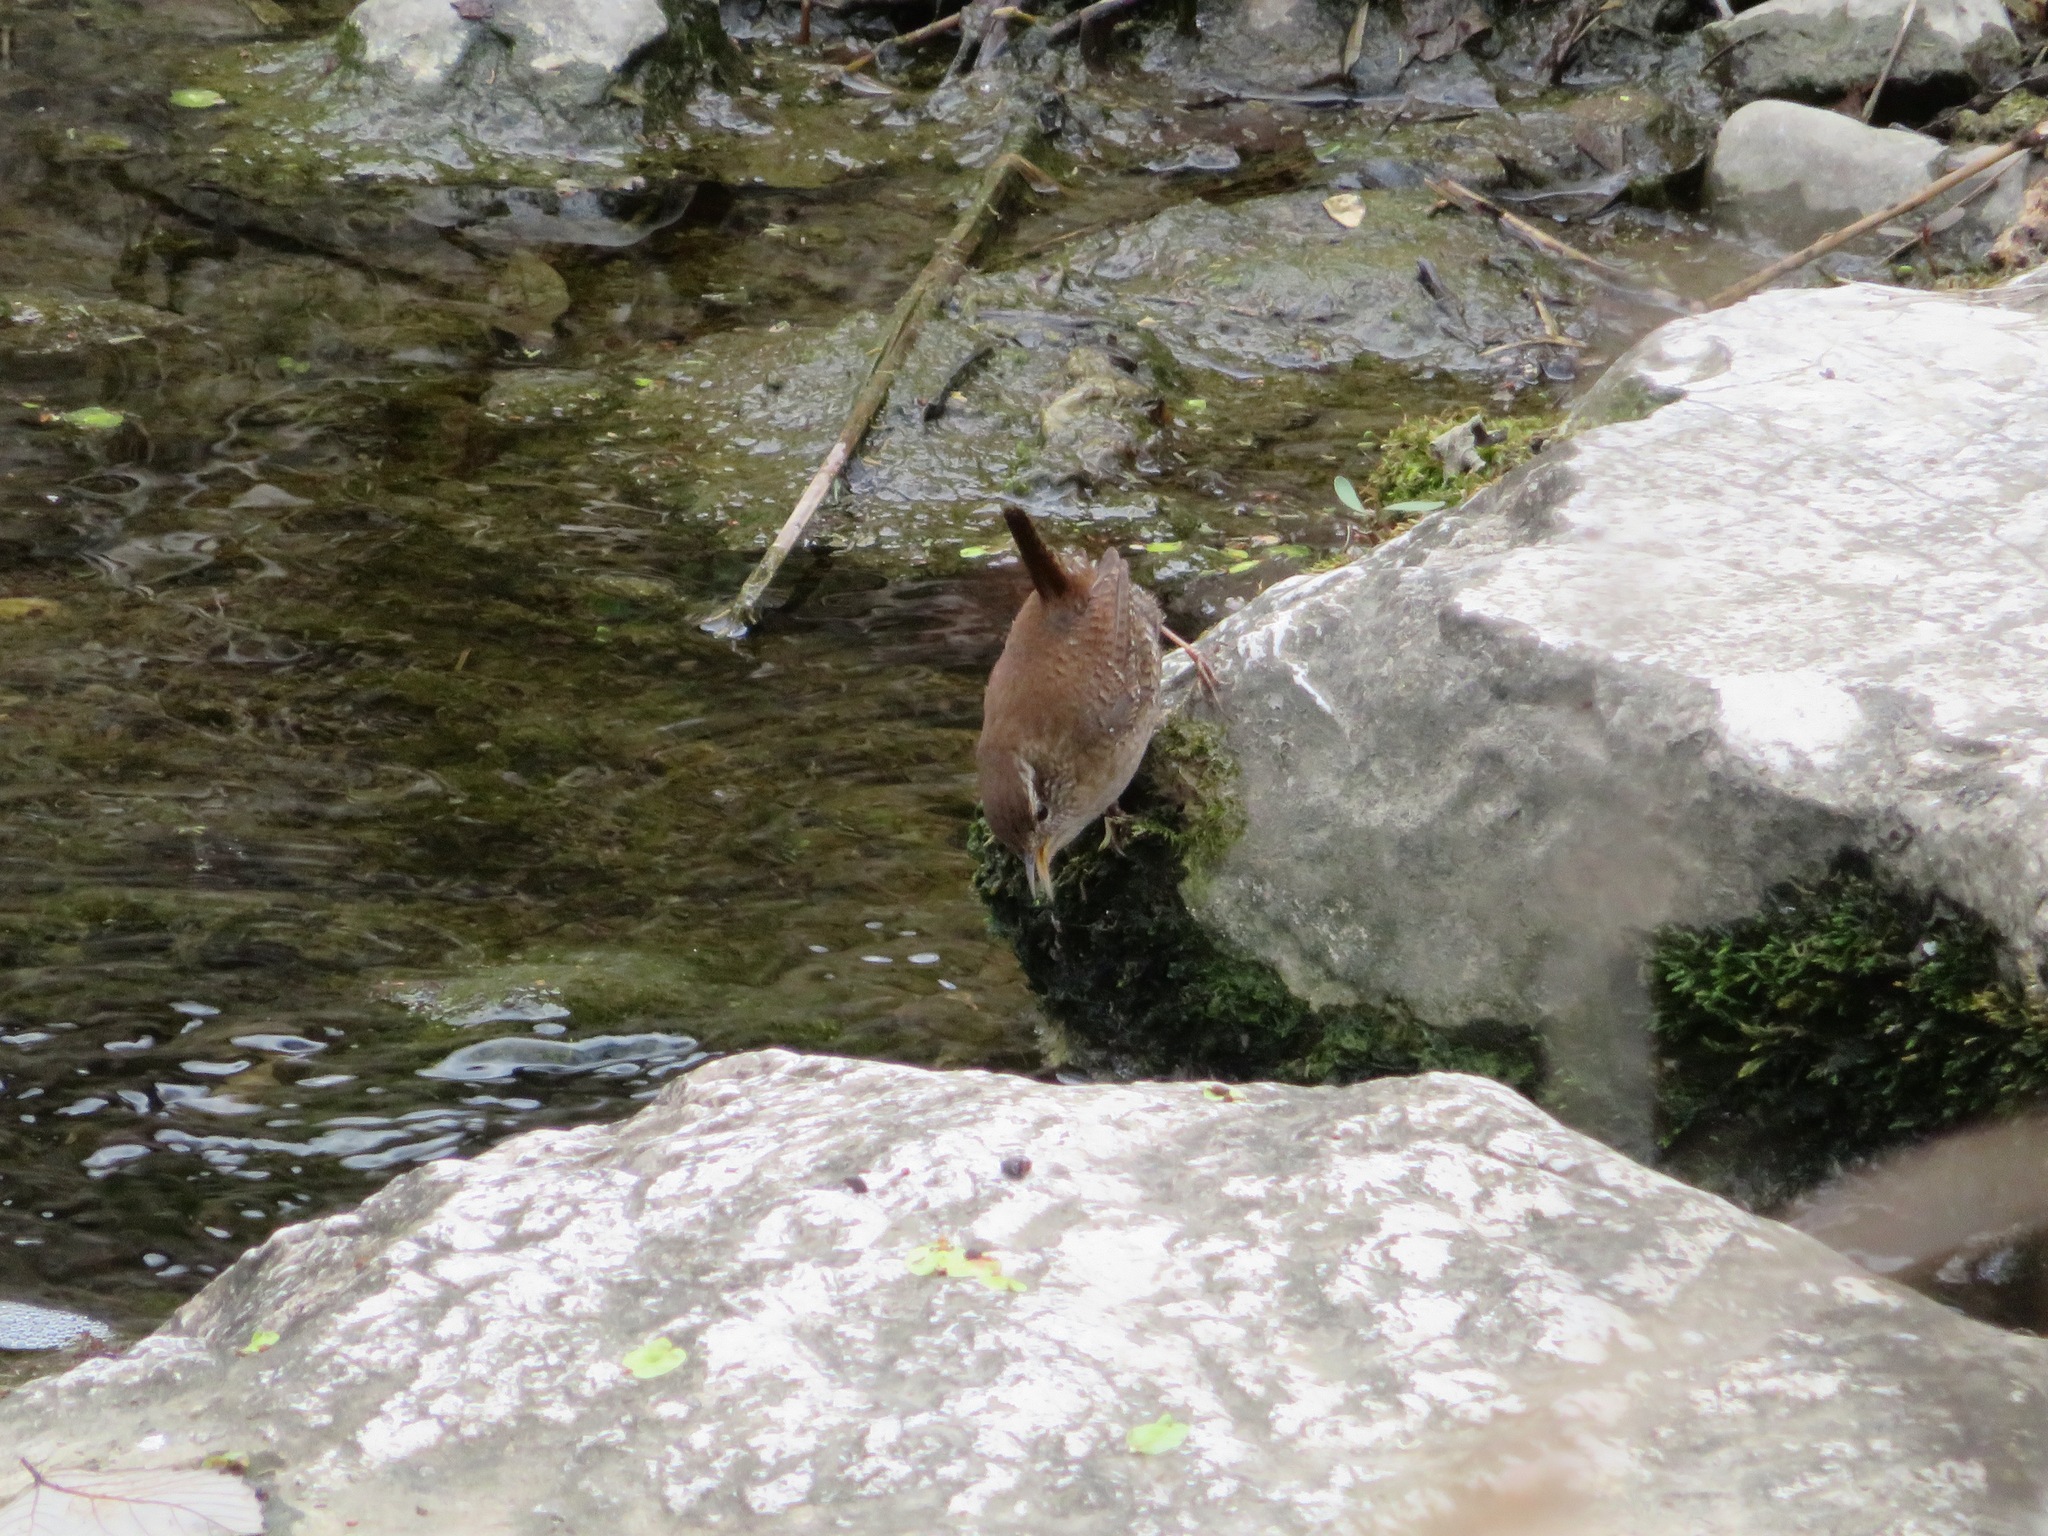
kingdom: Animalia
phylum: Chordata
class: Aves
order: Passeriformes
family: Troglodytidae
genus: Troglodytes
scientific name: Troglodytes troglodytes
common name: Eurasian wren
